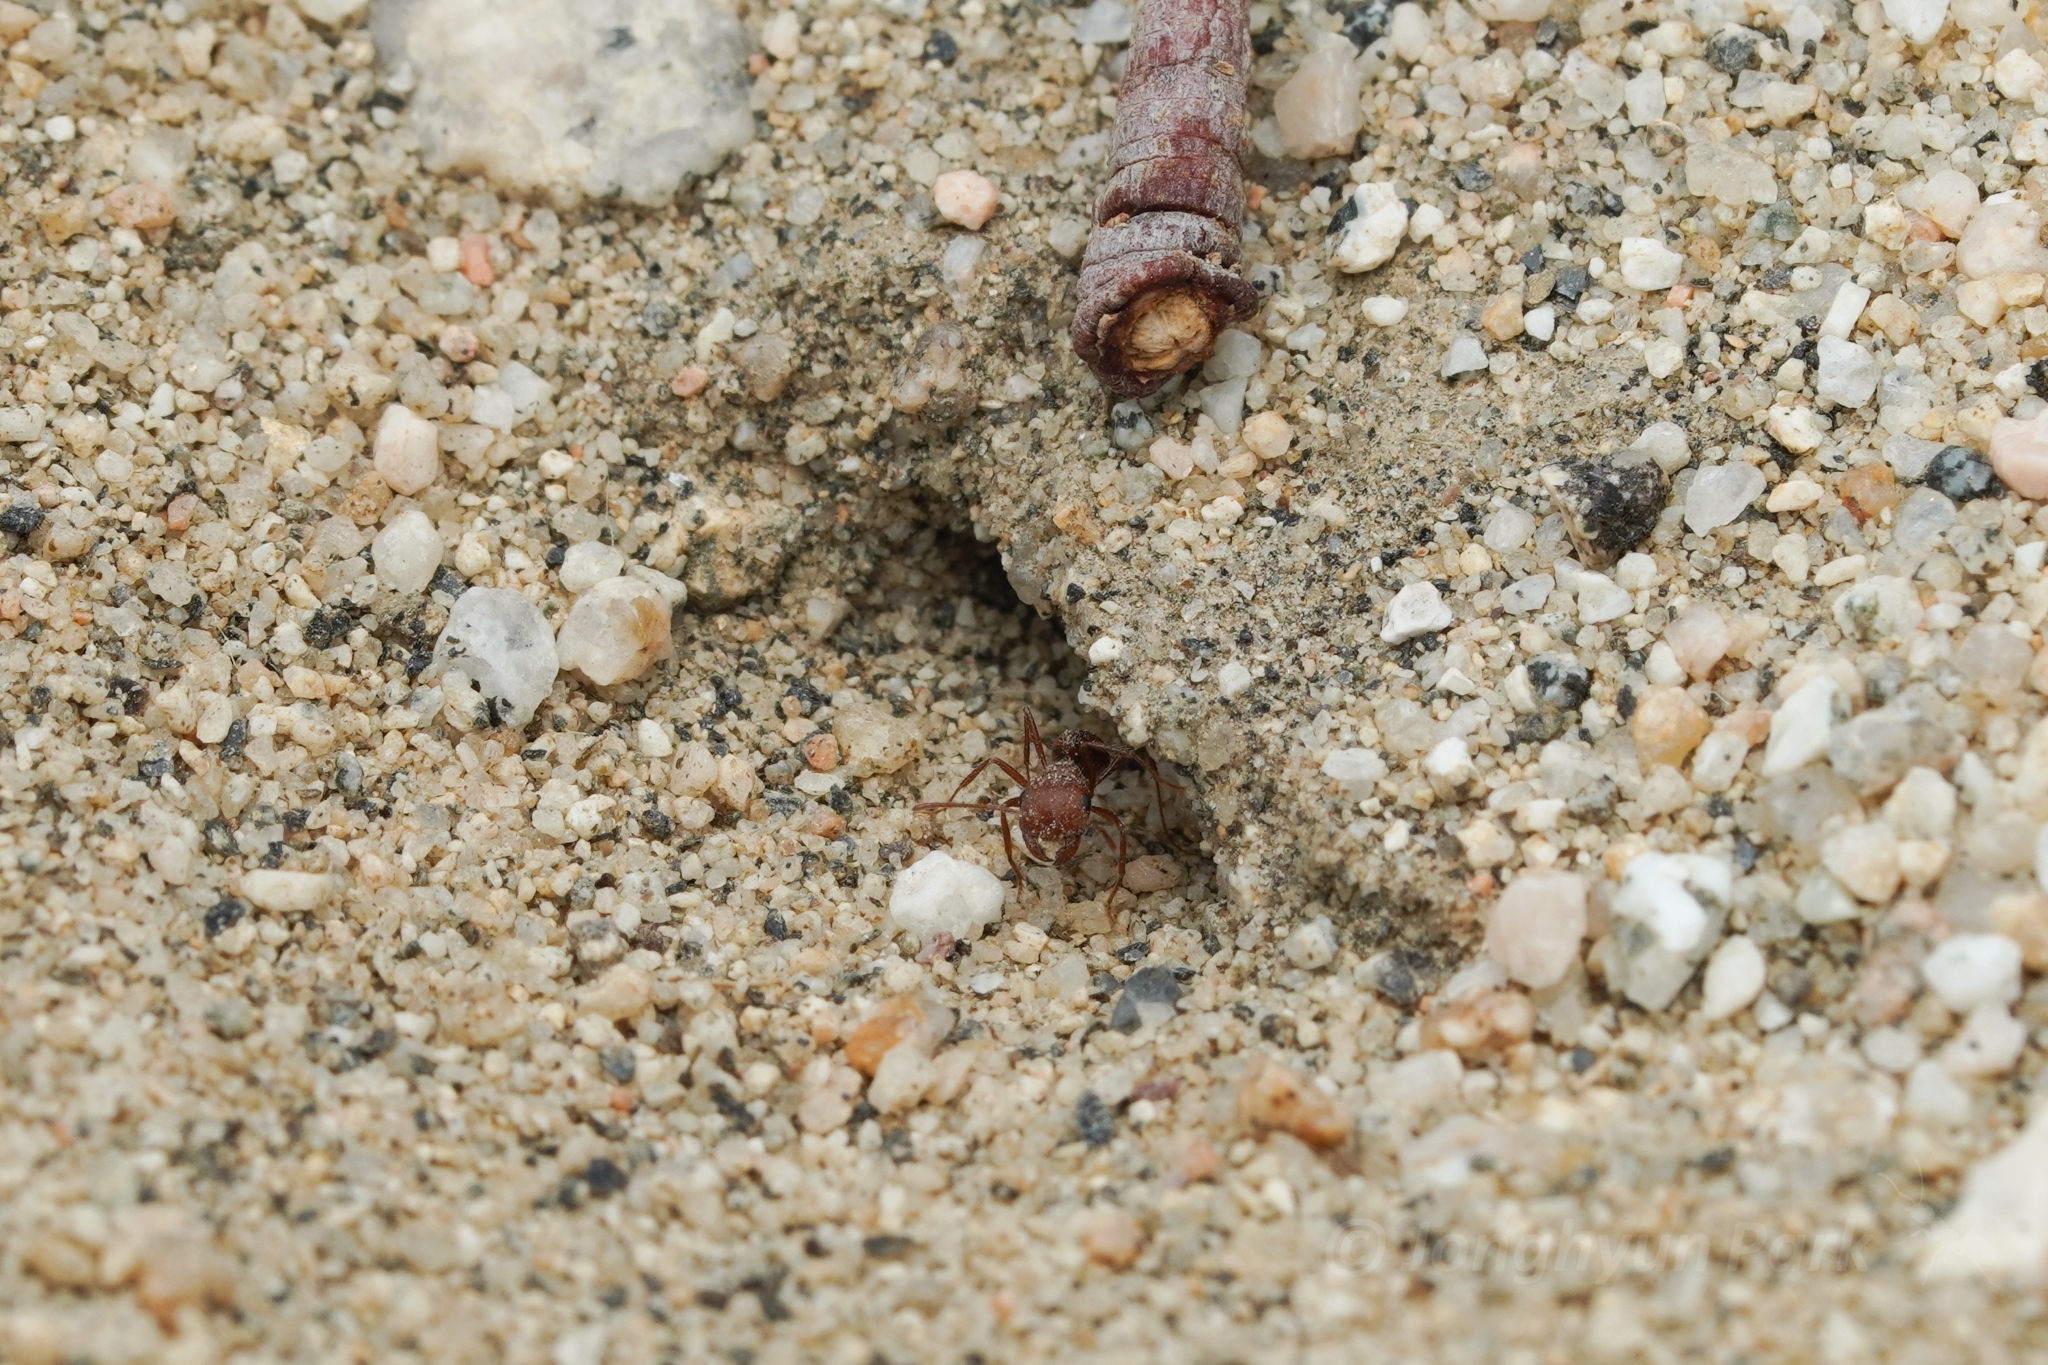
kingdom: Animalia
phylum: Arthropoda
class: Insecta
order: Hymenoptera
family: Formicidae
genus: Pogonomyrmex
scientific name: Pogonomyrmex magnacanthus
